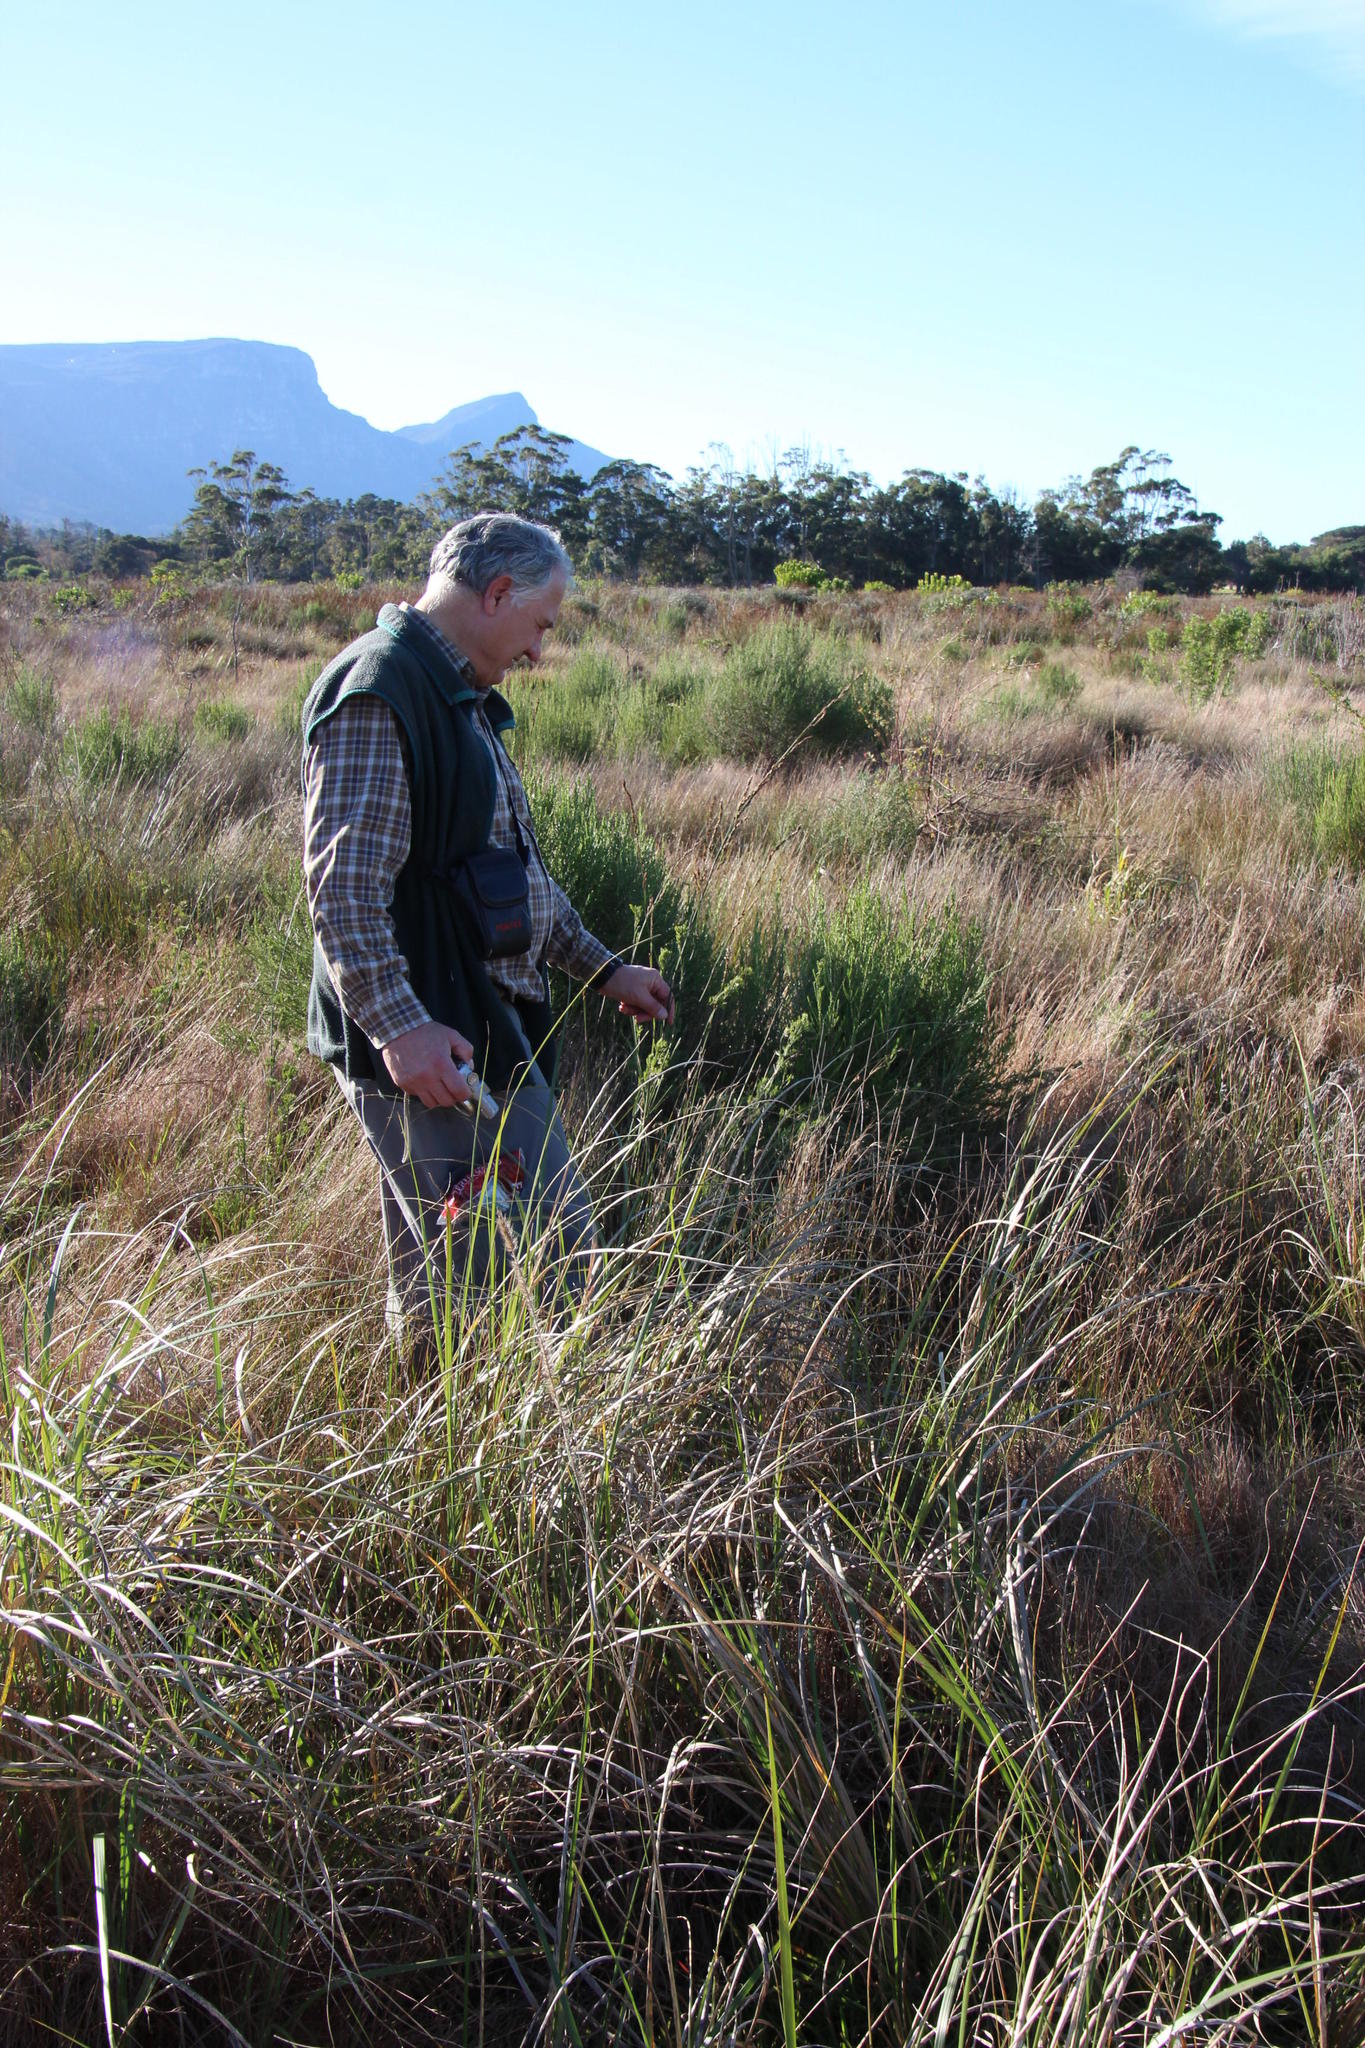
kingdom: Plantae
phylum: Tracheophyta
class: Liliopsida
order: Poales
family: Restionaceae
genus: Restio
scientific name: Restio tetragonus
